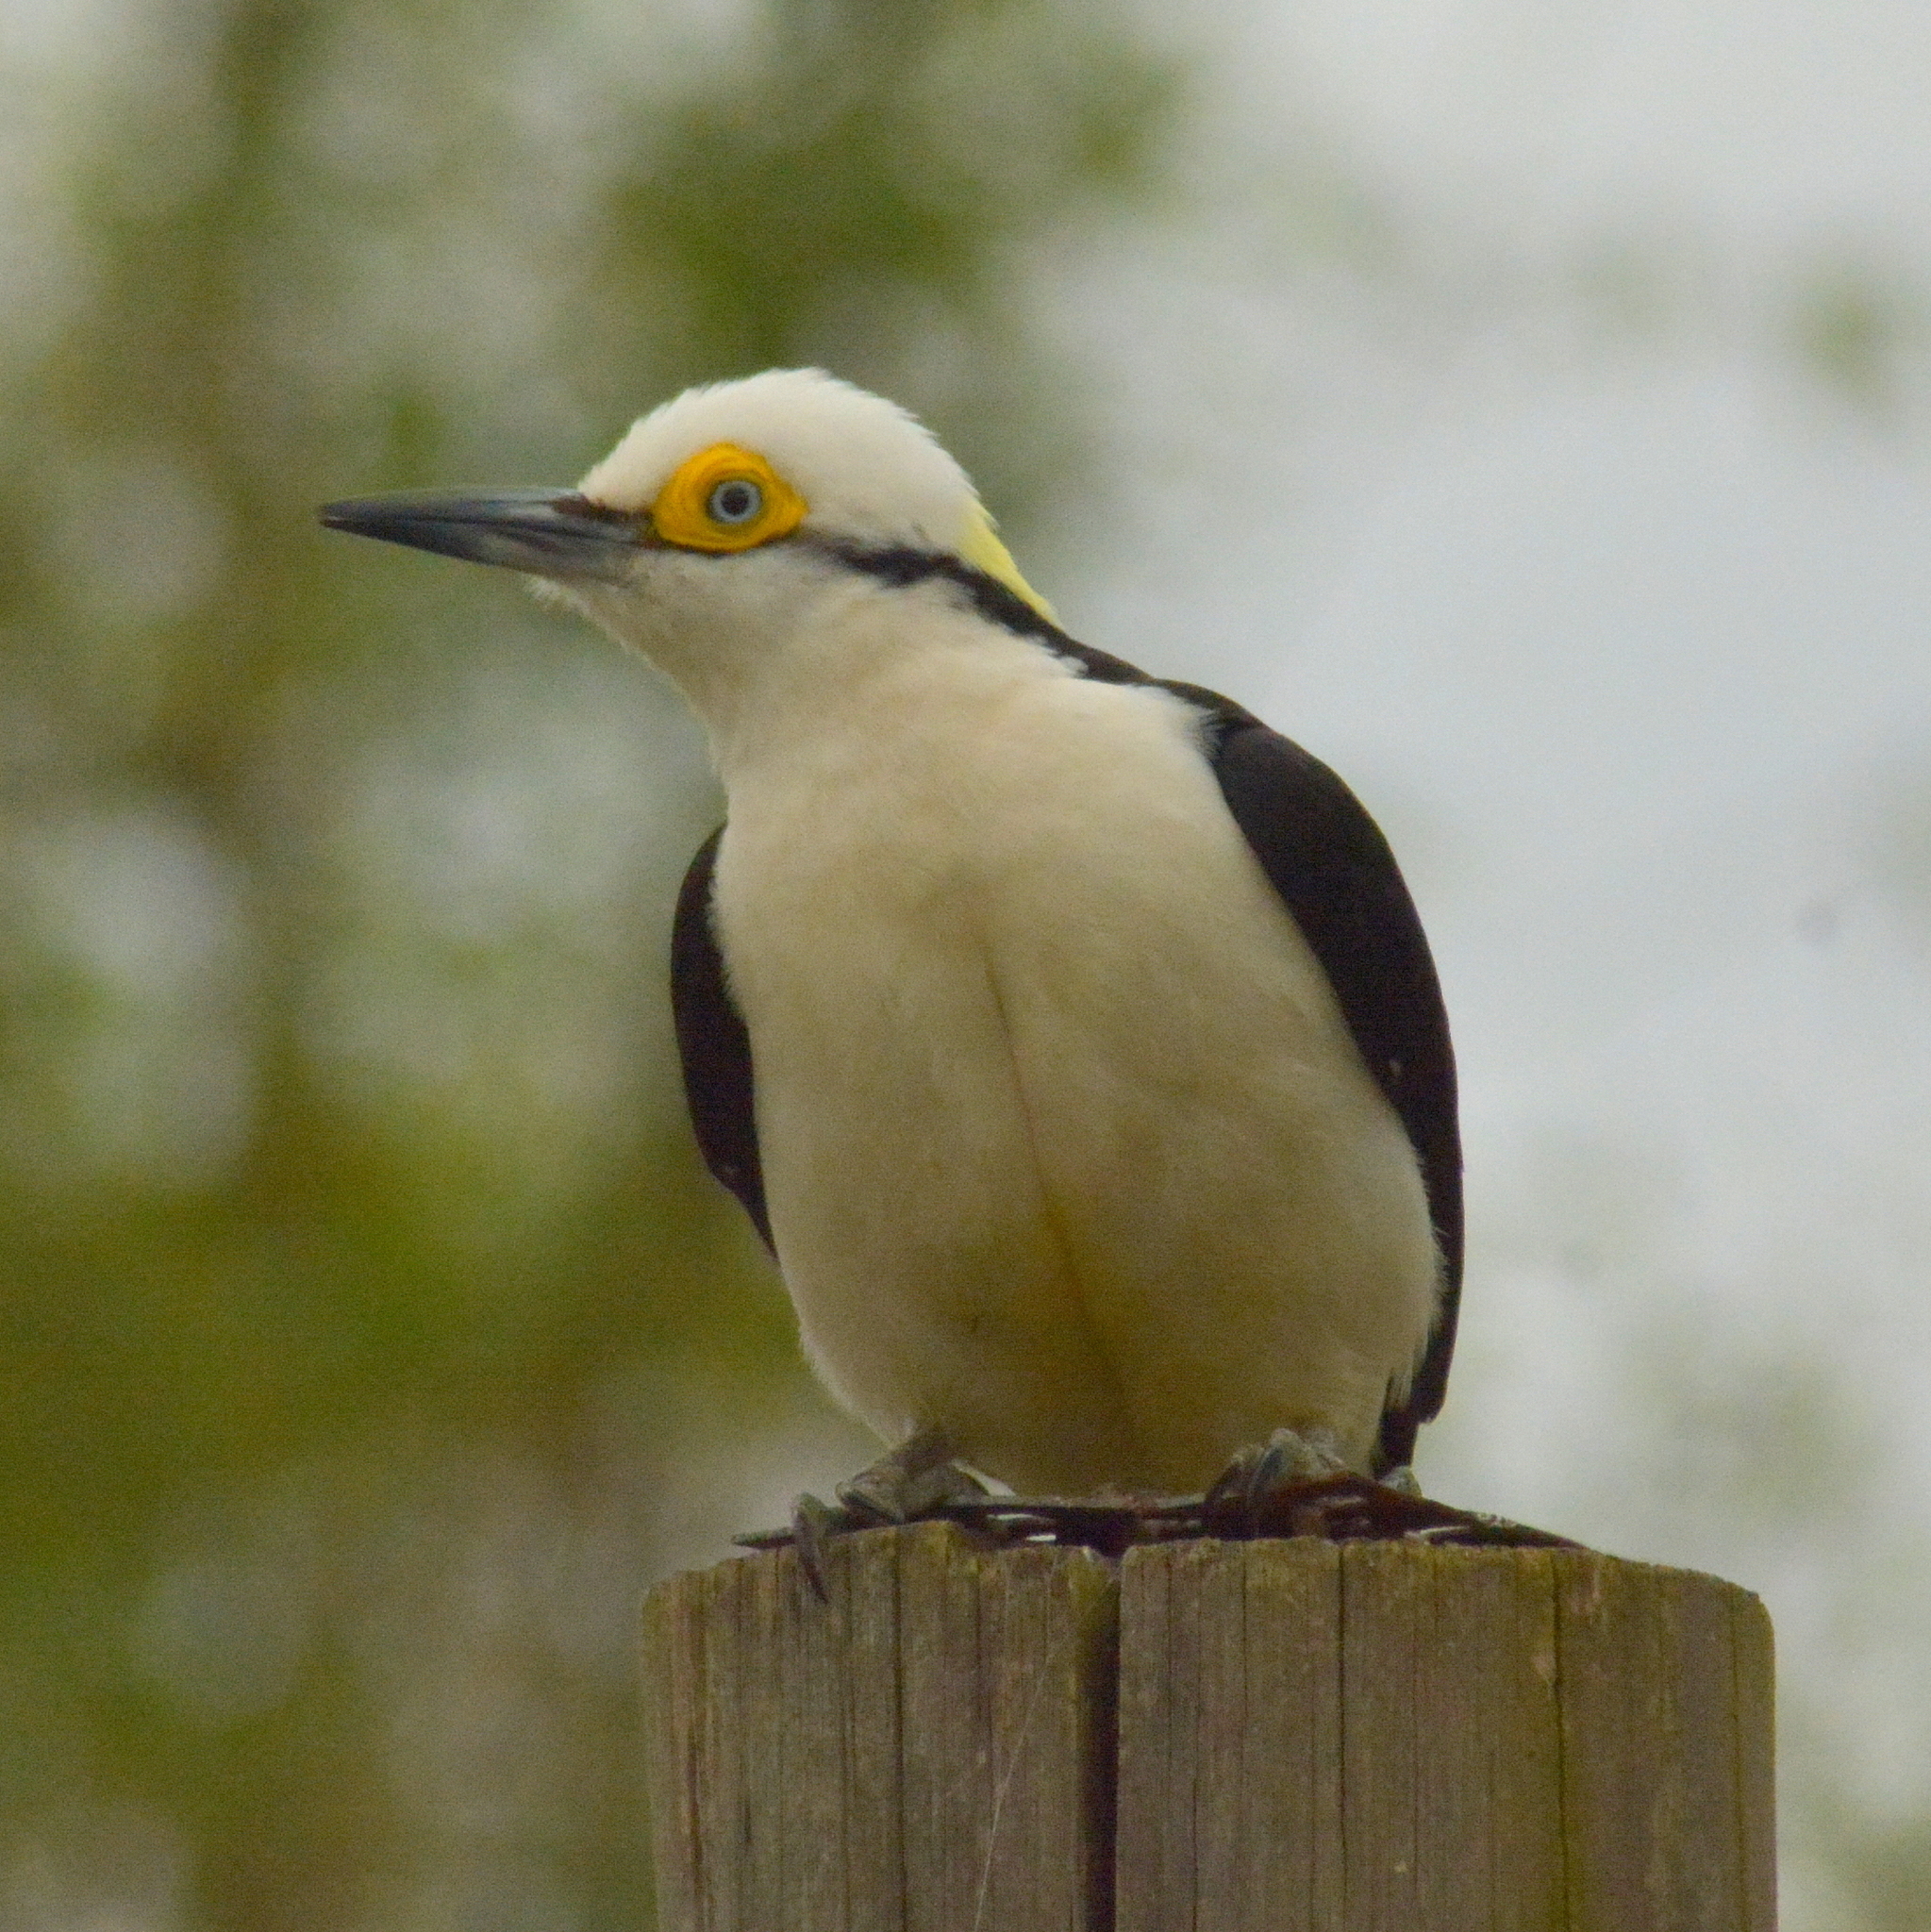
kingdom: Animalia
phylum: Chordata
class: Aves
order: Piciformes
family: Picidae
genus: Melanerpes
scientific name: Melanerpes candidus
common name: White woodpecker
